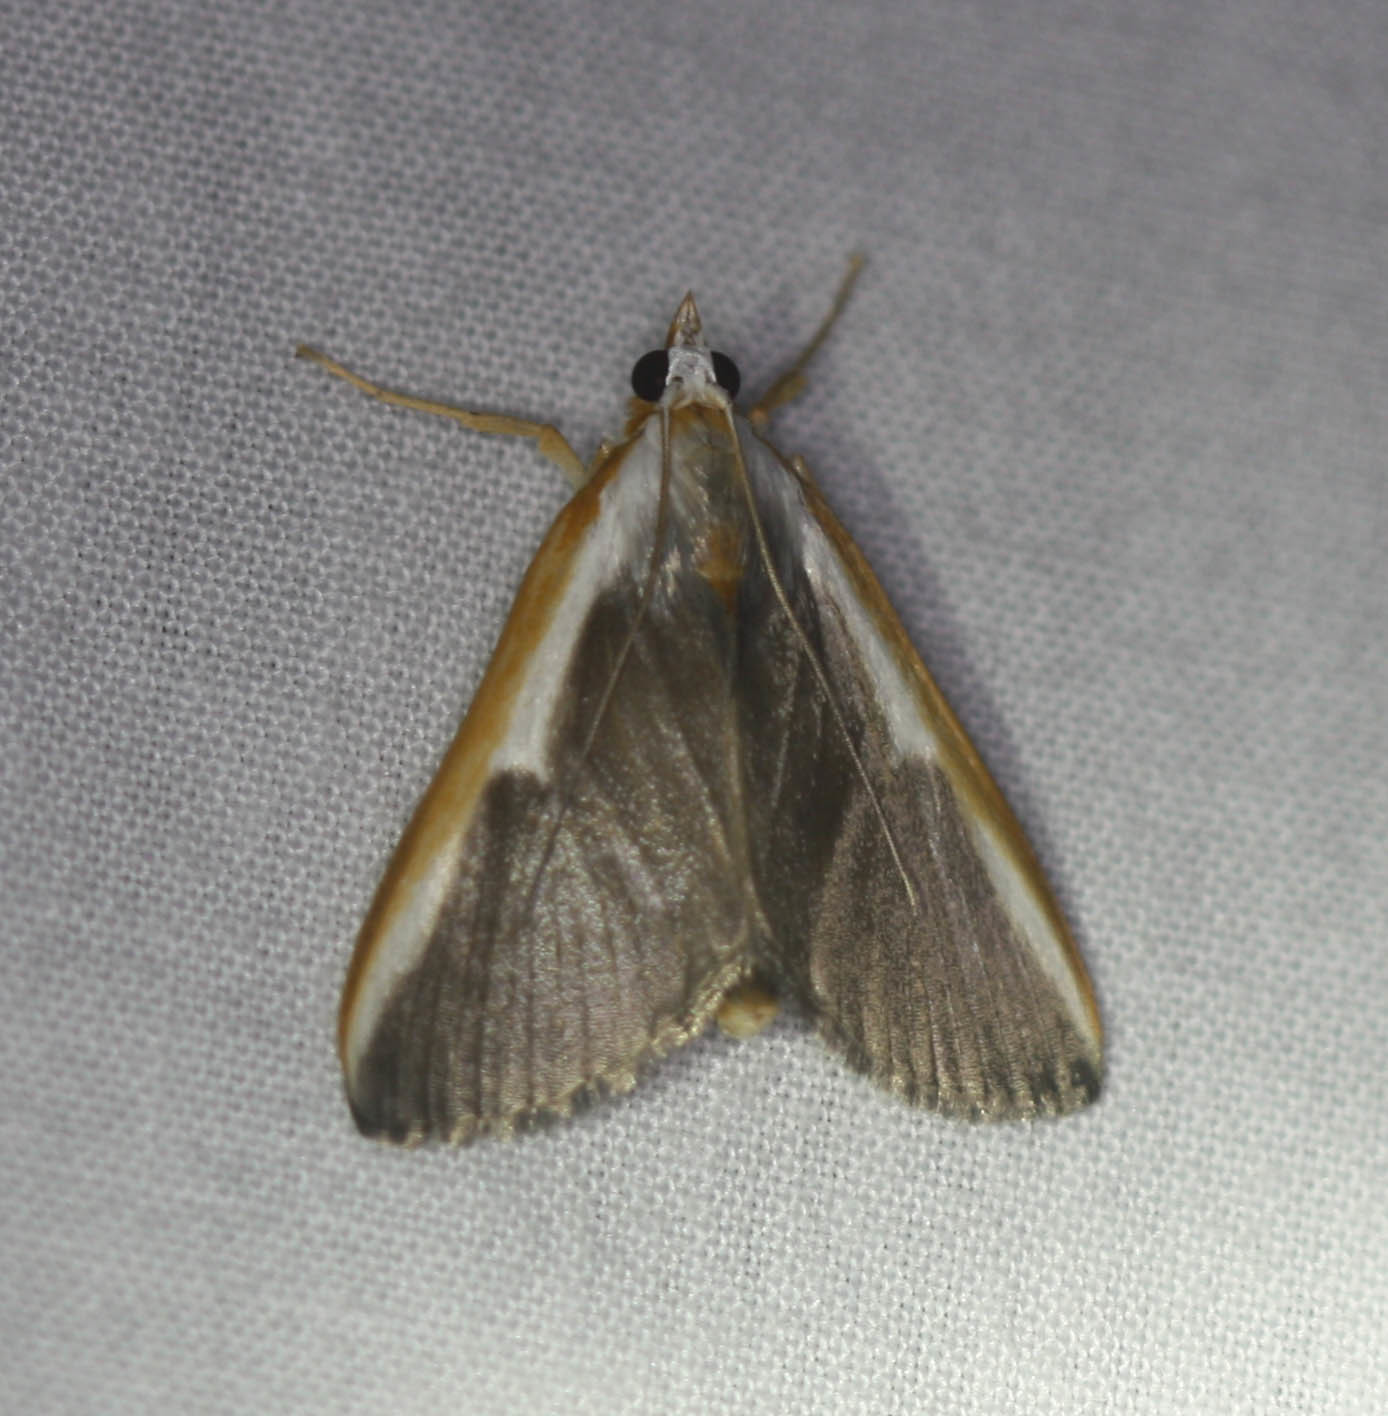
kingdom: Animalia
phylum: Arthropoda
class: Insecta
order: Lepidoptera
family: Crambidae
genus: Pylartes
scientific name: Pylartes subcostalis
